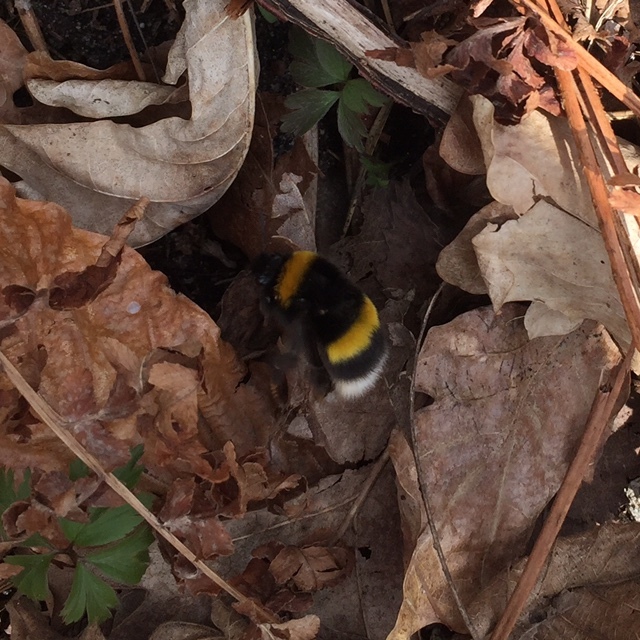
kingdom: Animalia
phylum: Arthropoda
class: Insecta
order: Hymenoptera
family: Apidae
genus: Bombus
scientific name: Bombus terrestris
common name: Buff-tailed bumblebee
